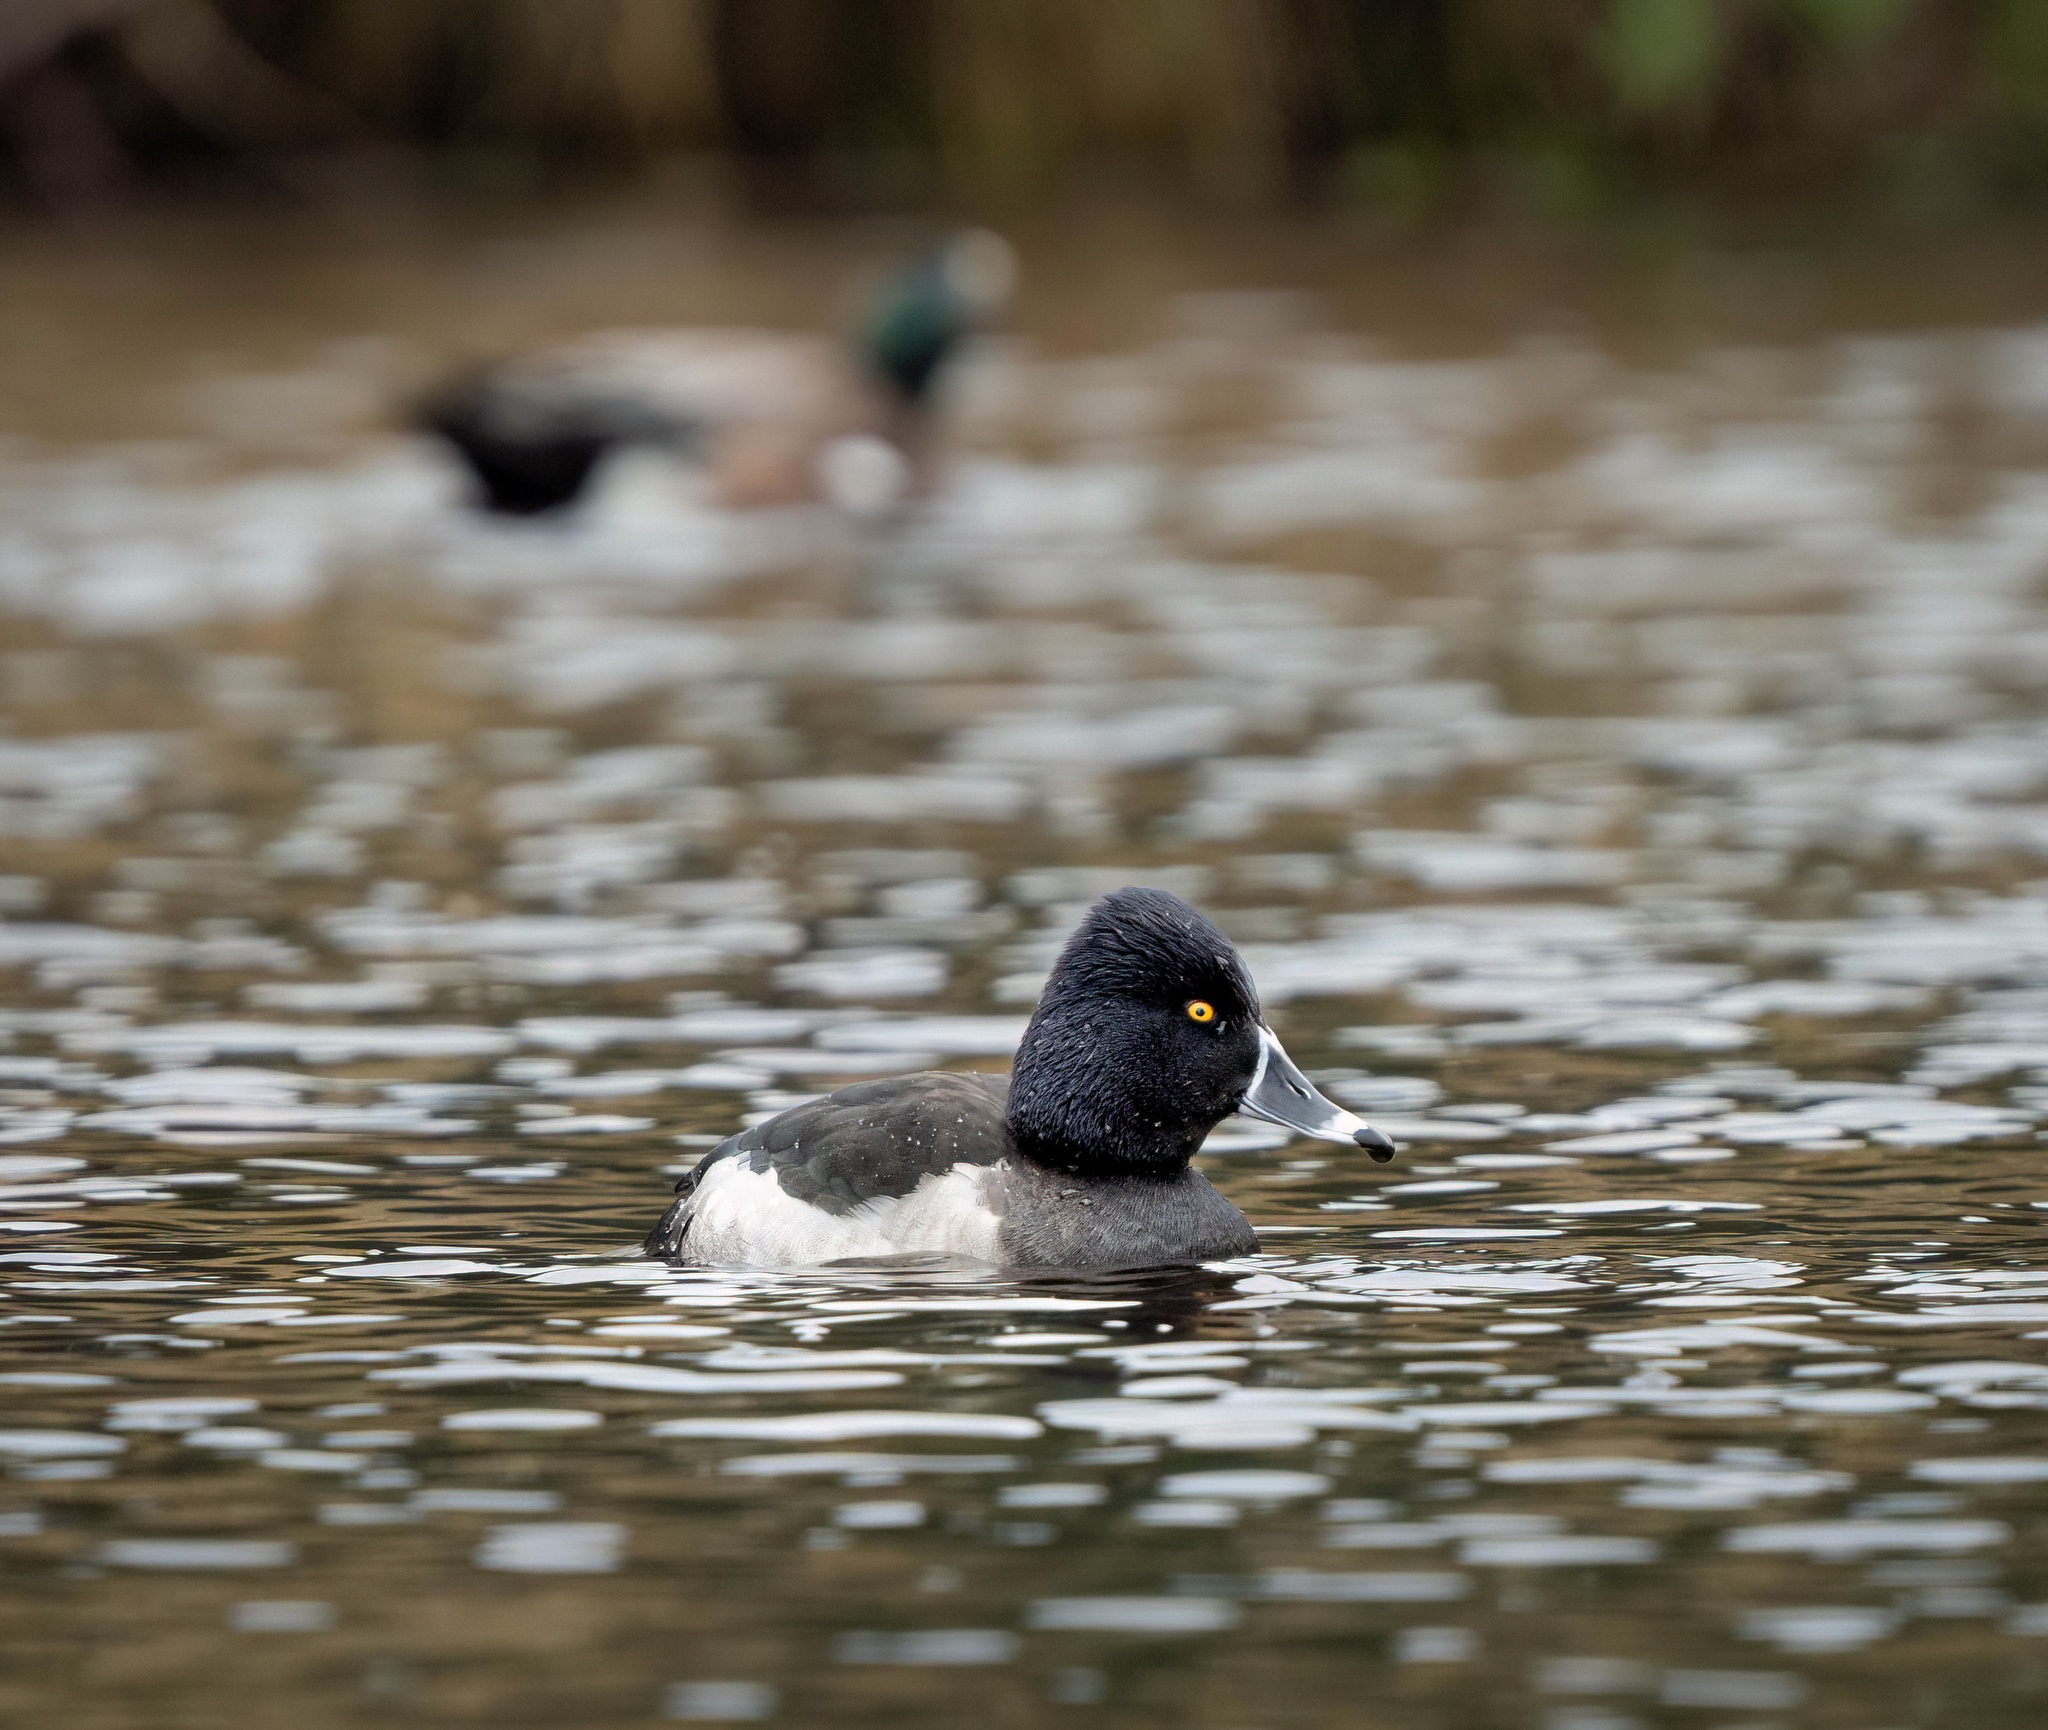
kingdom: Animalia
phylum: Chordata
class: Aves
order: Anseriformes
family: Anatidae
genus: Aythya
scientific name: Aythya collaris
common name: Ring-necked duck
